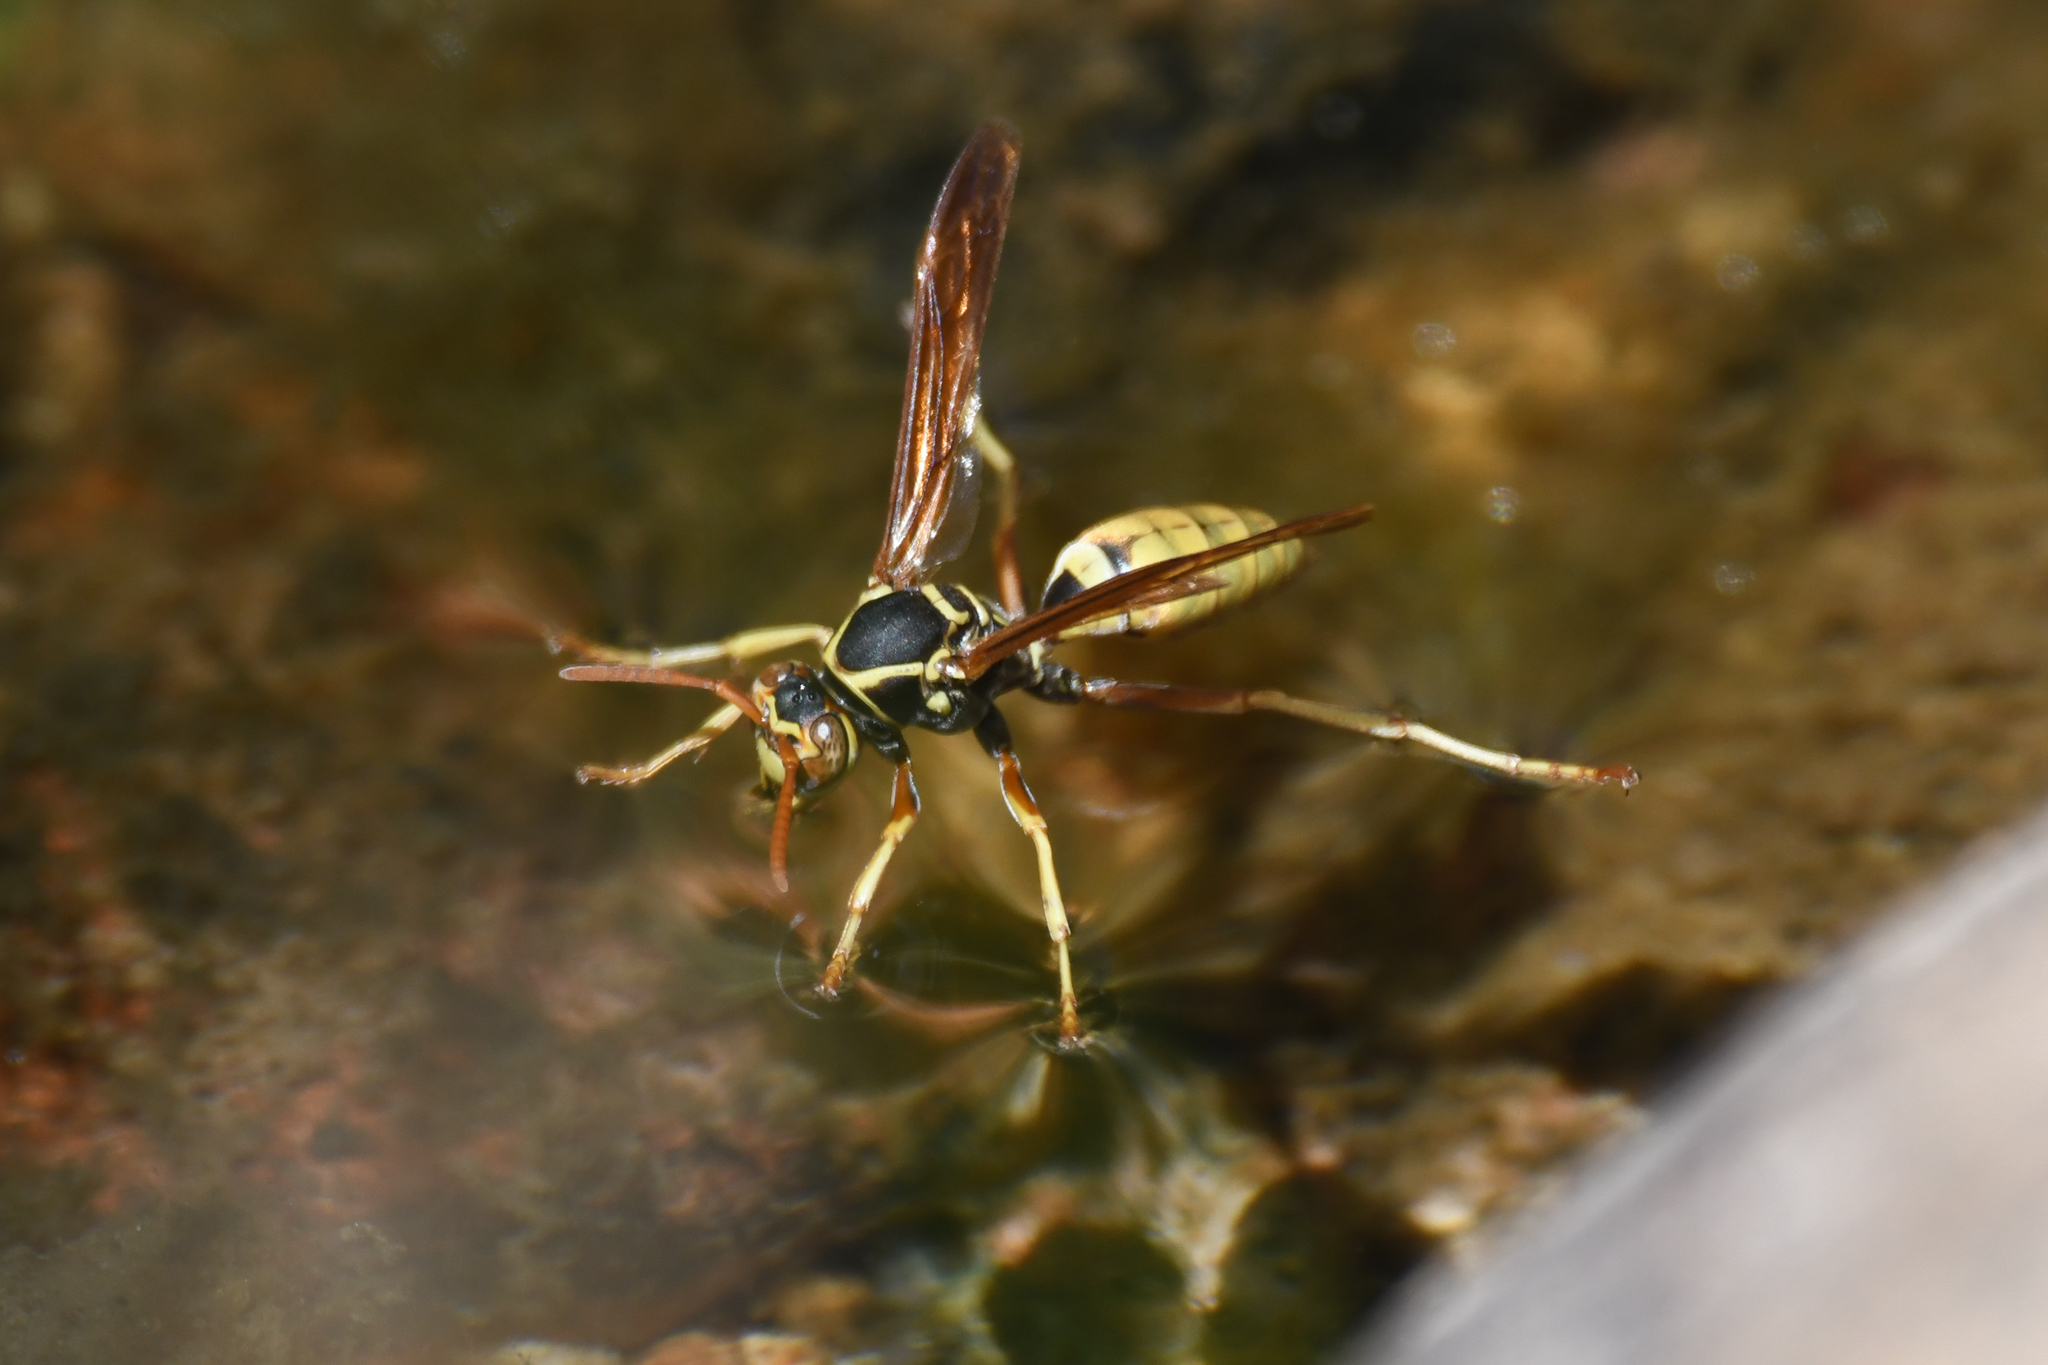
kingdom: Animalia
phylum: Arthropoda
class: Insecta
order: Hymenoptera
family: Eumenidae
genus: Polistes
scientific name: Polistes aurifer
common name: Paper wasp
